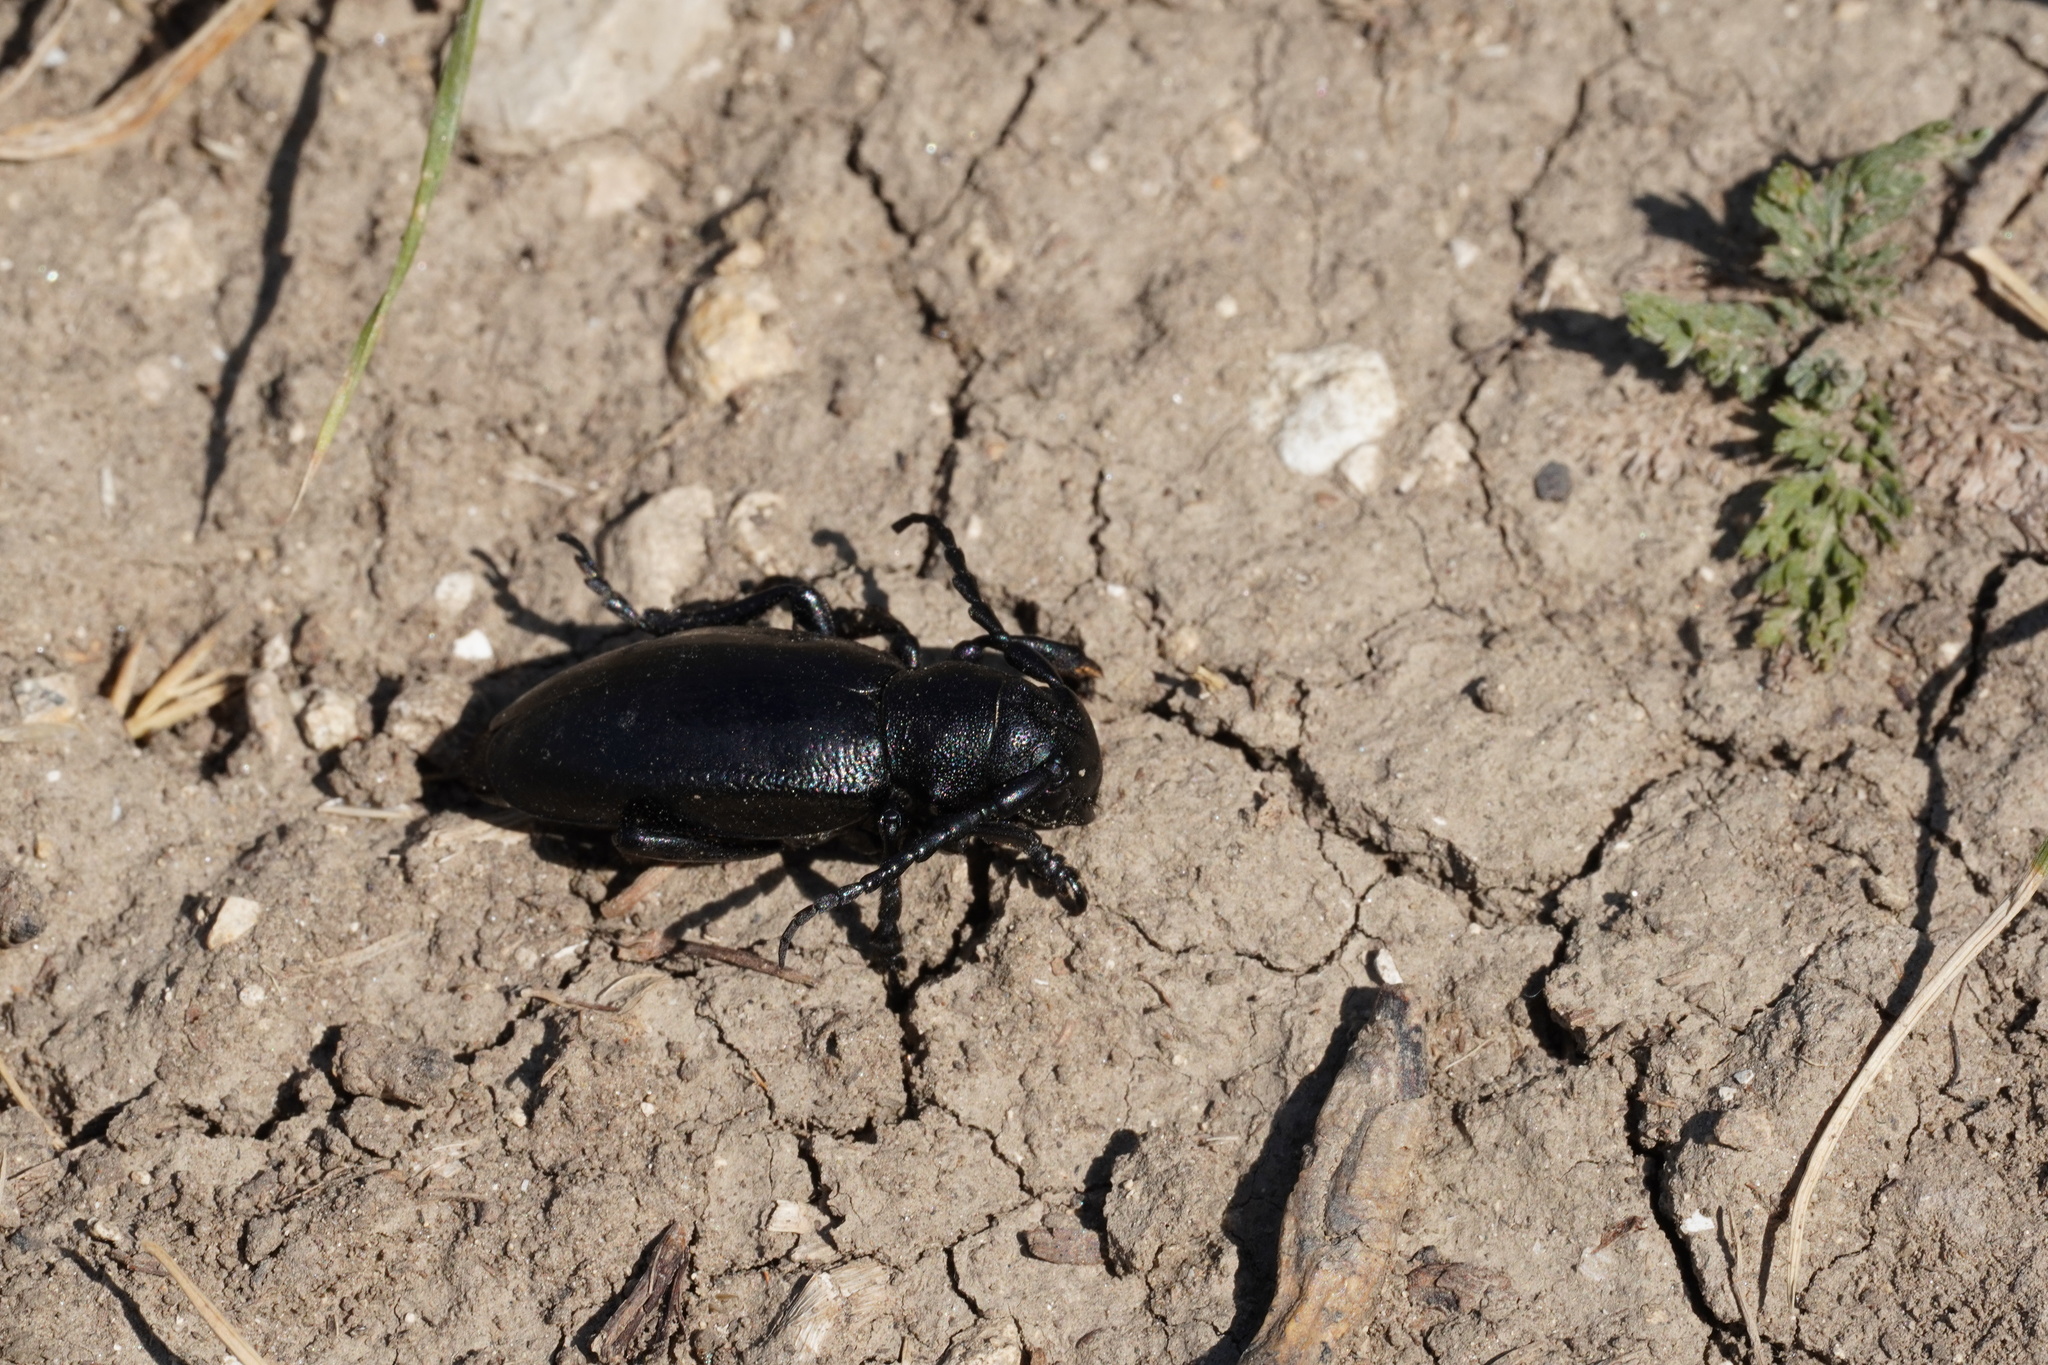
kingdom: Animalia
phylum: Arthropoda
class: Insecta
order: Coleoptera
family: Cerambycidae
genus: Dorcadion
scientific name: Dorcadion aethiops
